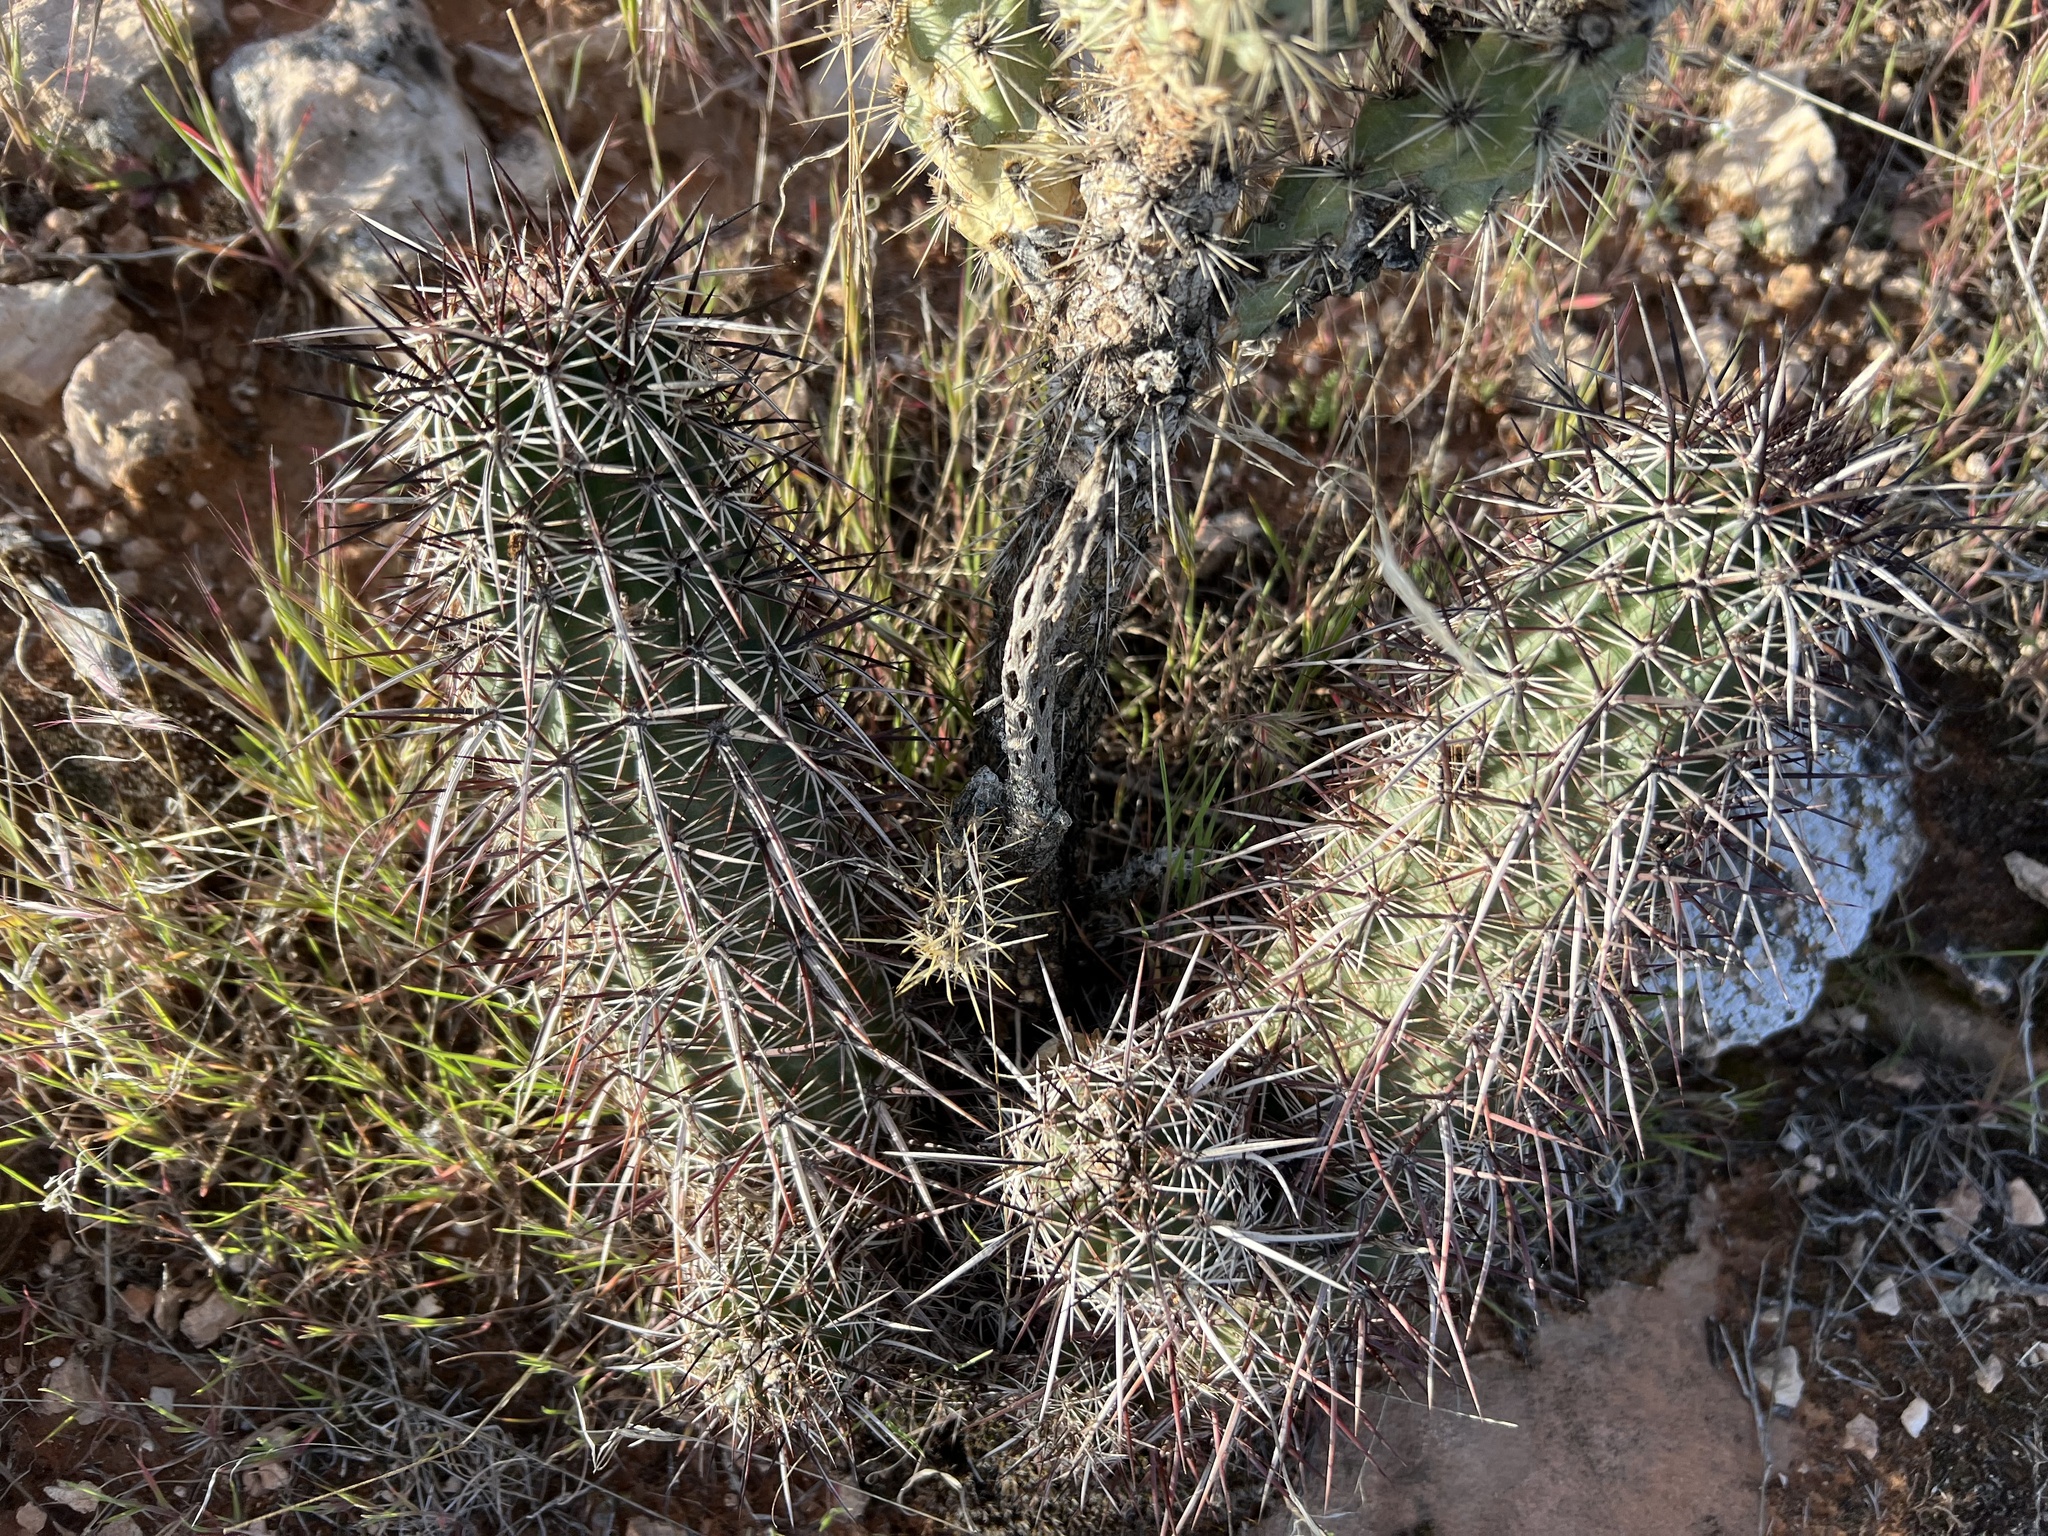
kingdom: Plantae
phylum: Tracheophyta
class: Magnoliopsida
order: Caryophyllales
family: Cactaceae
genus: Echinocereus
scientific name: Echinocereus relictus
